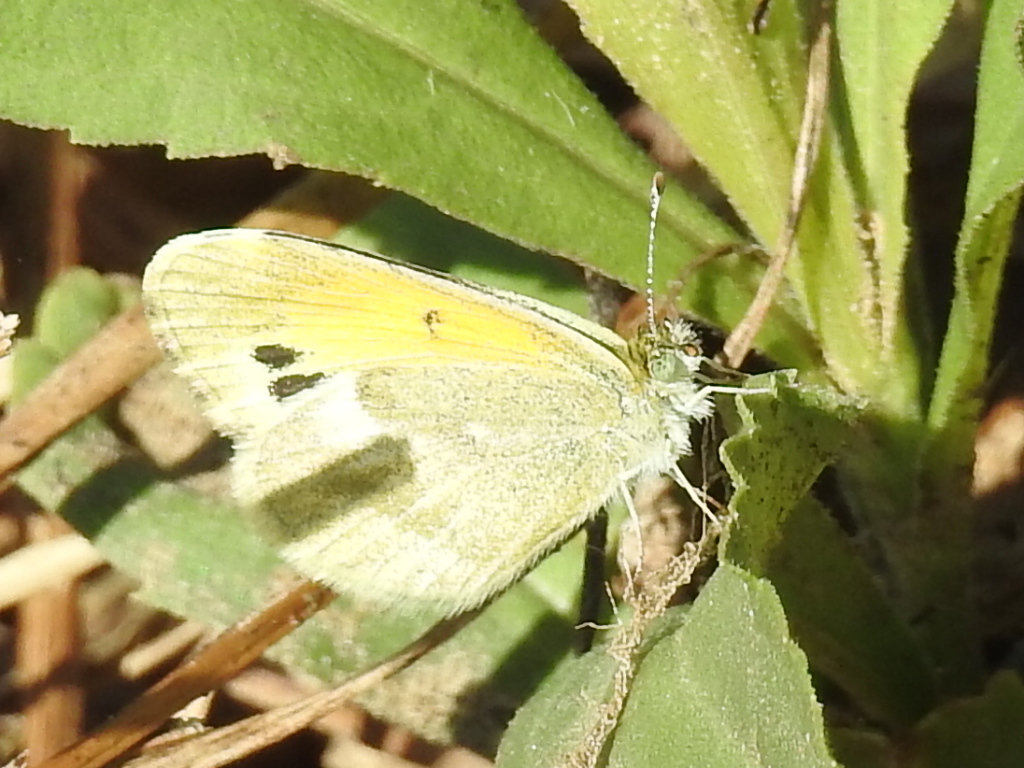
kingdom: Animalia
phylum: Arthropoda
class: Insecta
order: Lepidoptera
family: Pieridae
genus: Nathalis
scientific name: Nathalis iole
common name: Dainty sulphur
